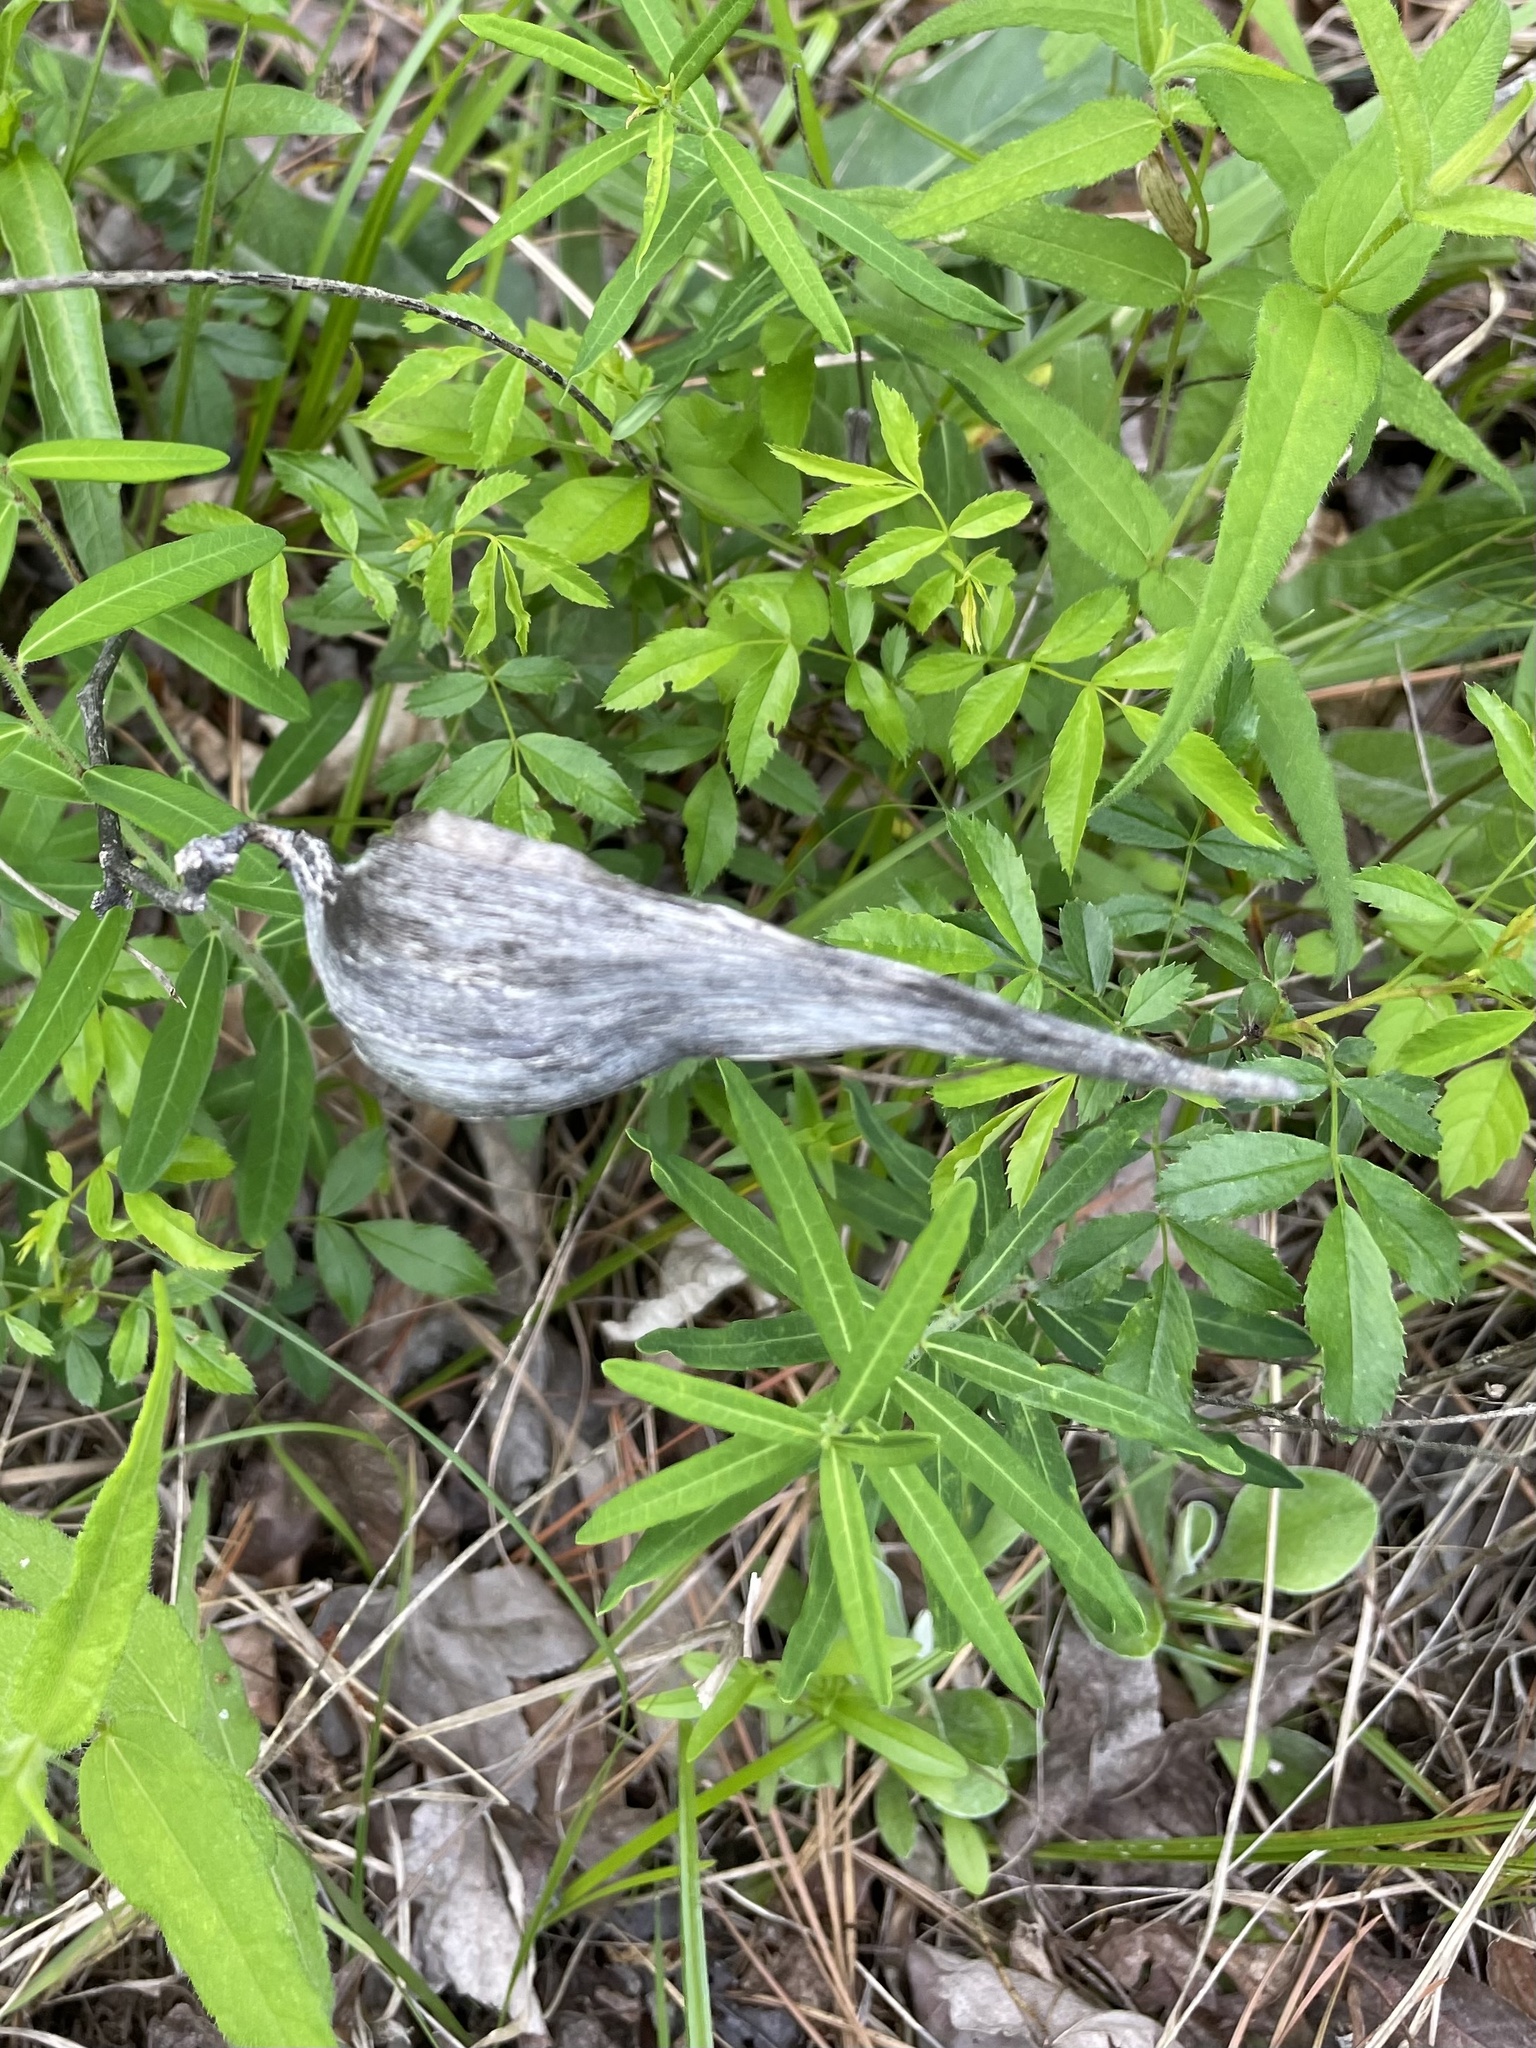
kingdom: Plantae
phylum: Tracheophyta
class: Magnoliopsida
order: Gentianales
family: Apocynaceae
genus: Asclepias
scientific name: Asclepias viridiflora
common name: Green comet milkweed
